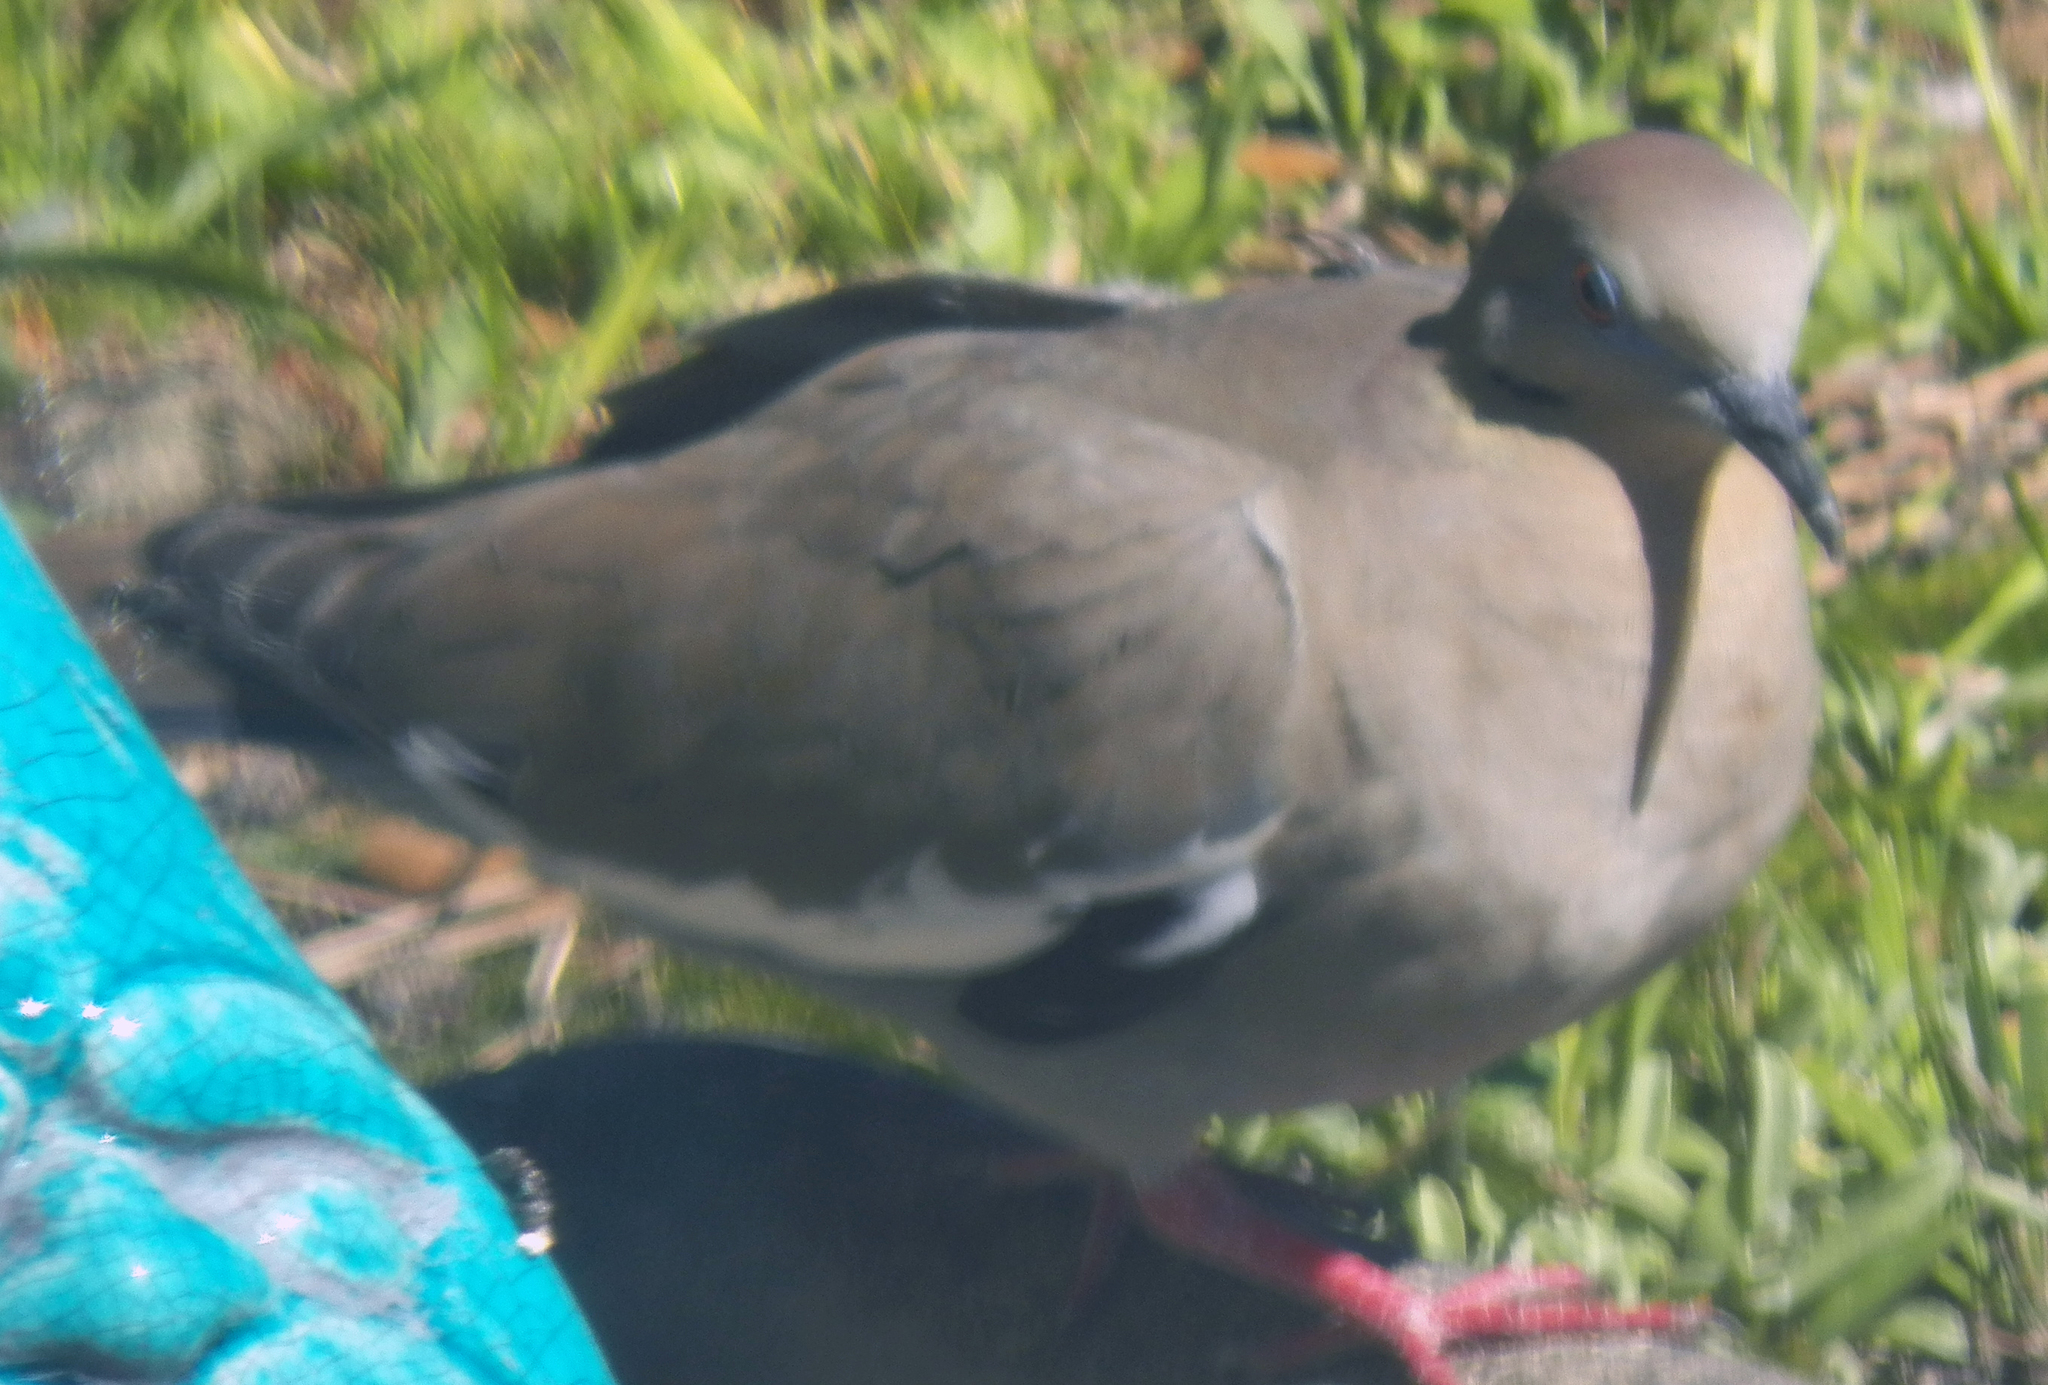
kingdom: Animalia
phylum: Chordata
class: Aves
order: Columbiformes
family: Columbidae
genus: Zenaida
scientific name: Zenaida asiatica
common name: White-winged dove
